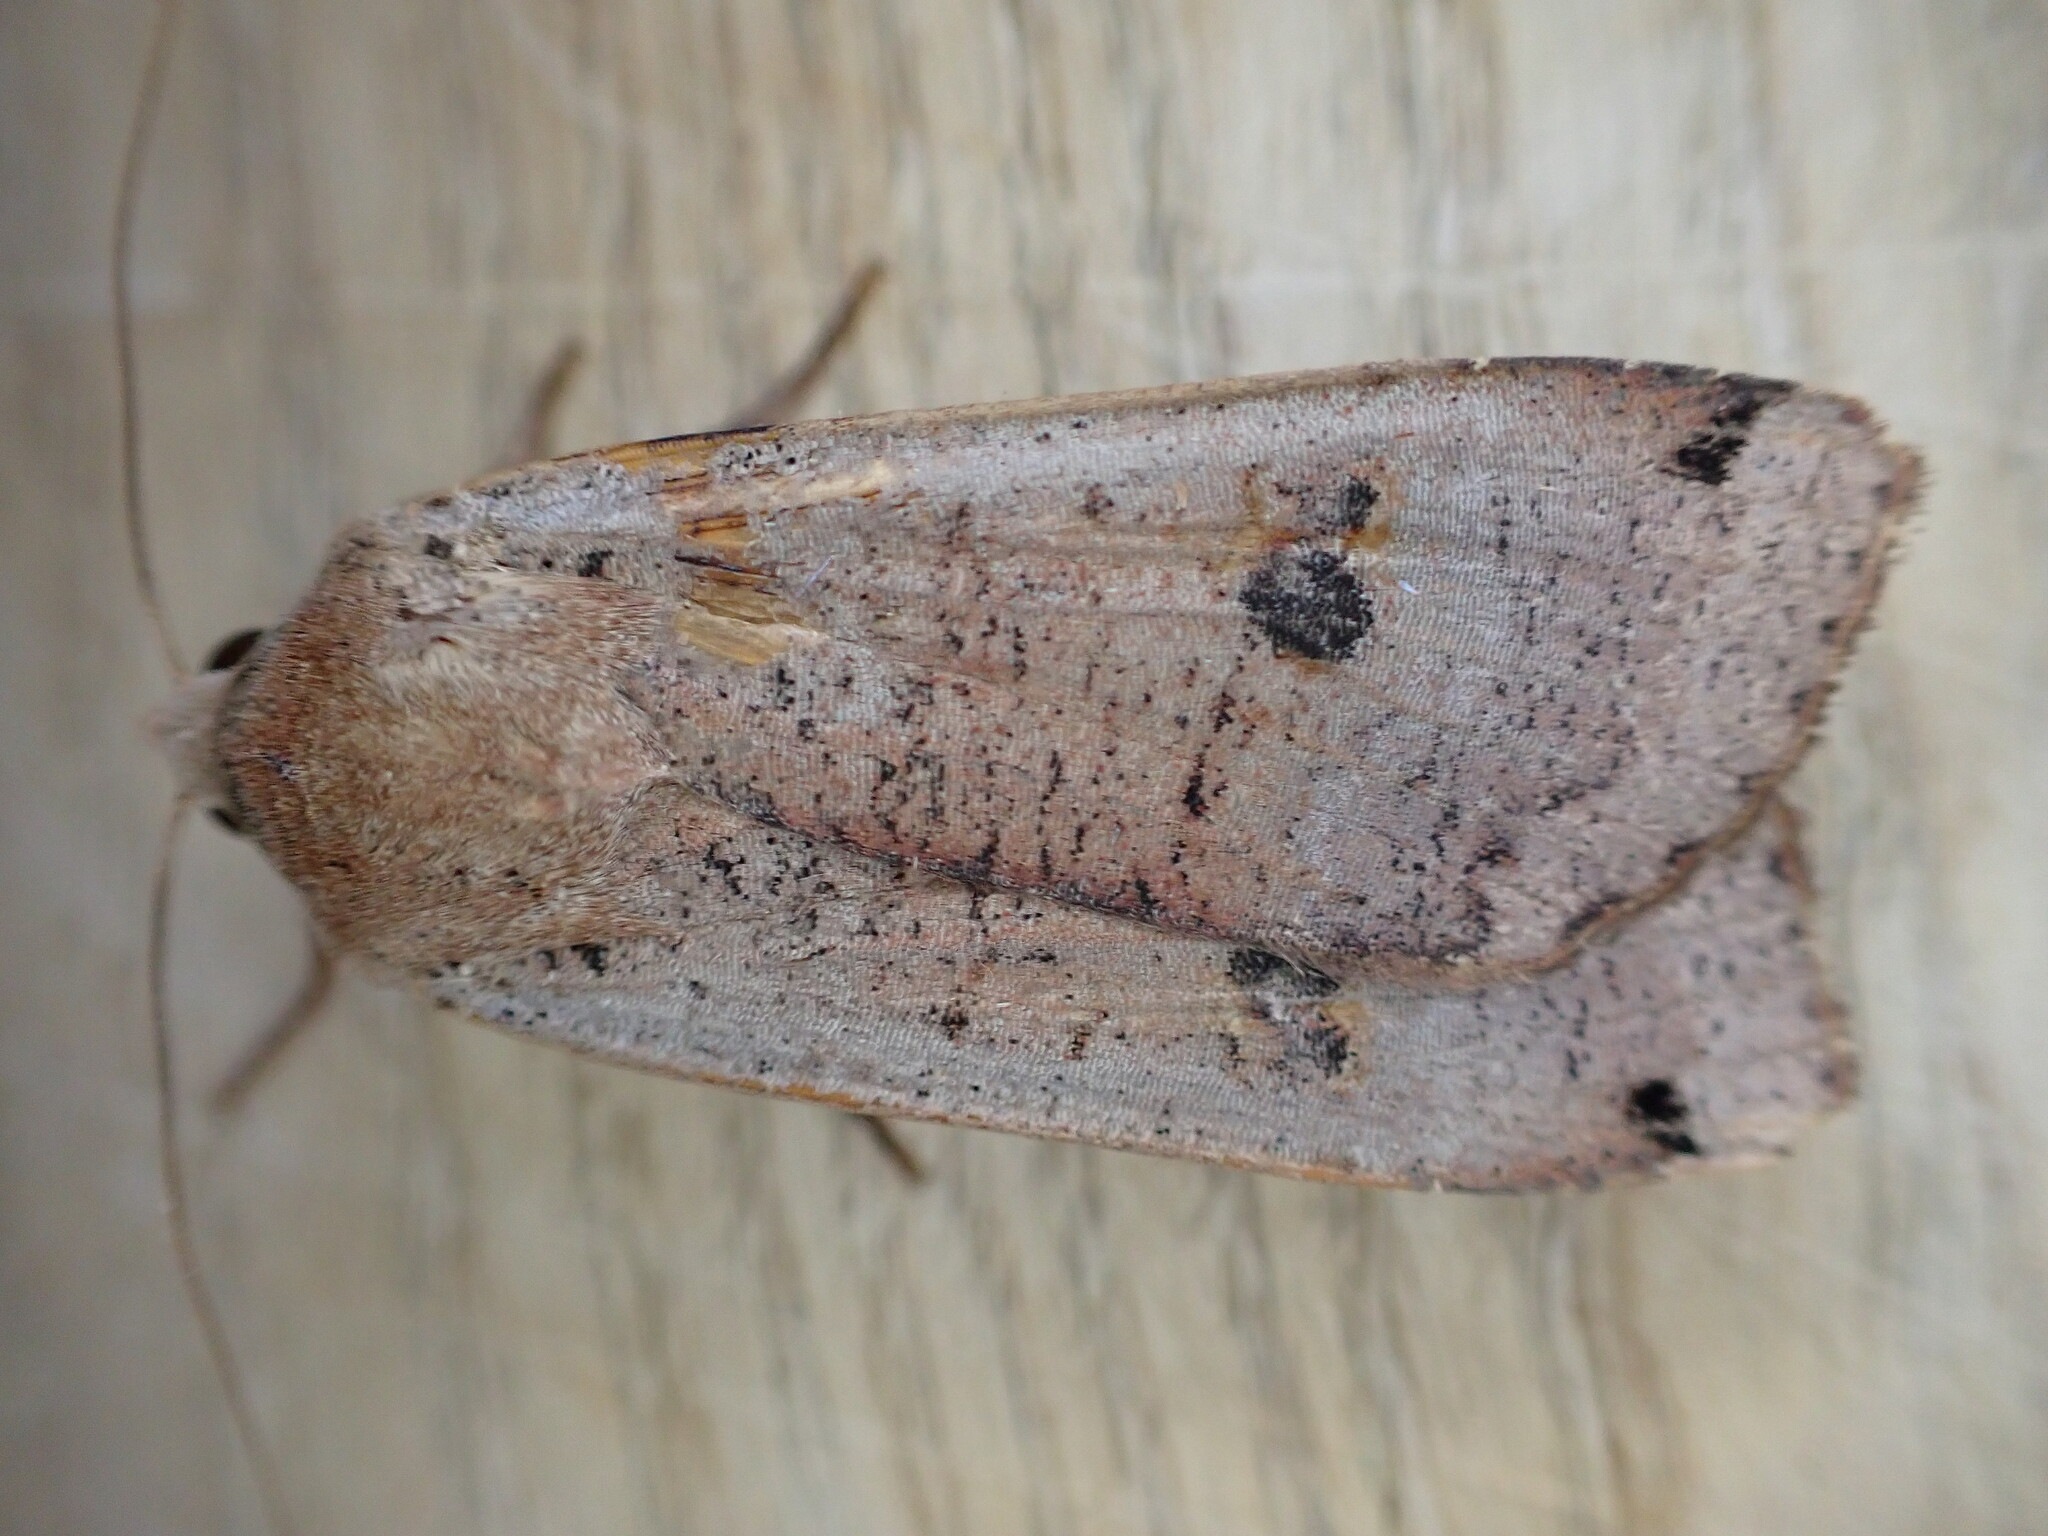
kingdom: Animalia
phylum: Arthropoda
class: Insecta
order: Lepidoptera
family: Noctuidae
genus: Noctua
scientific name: Noctua pronuba
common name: Large yellow underwing
